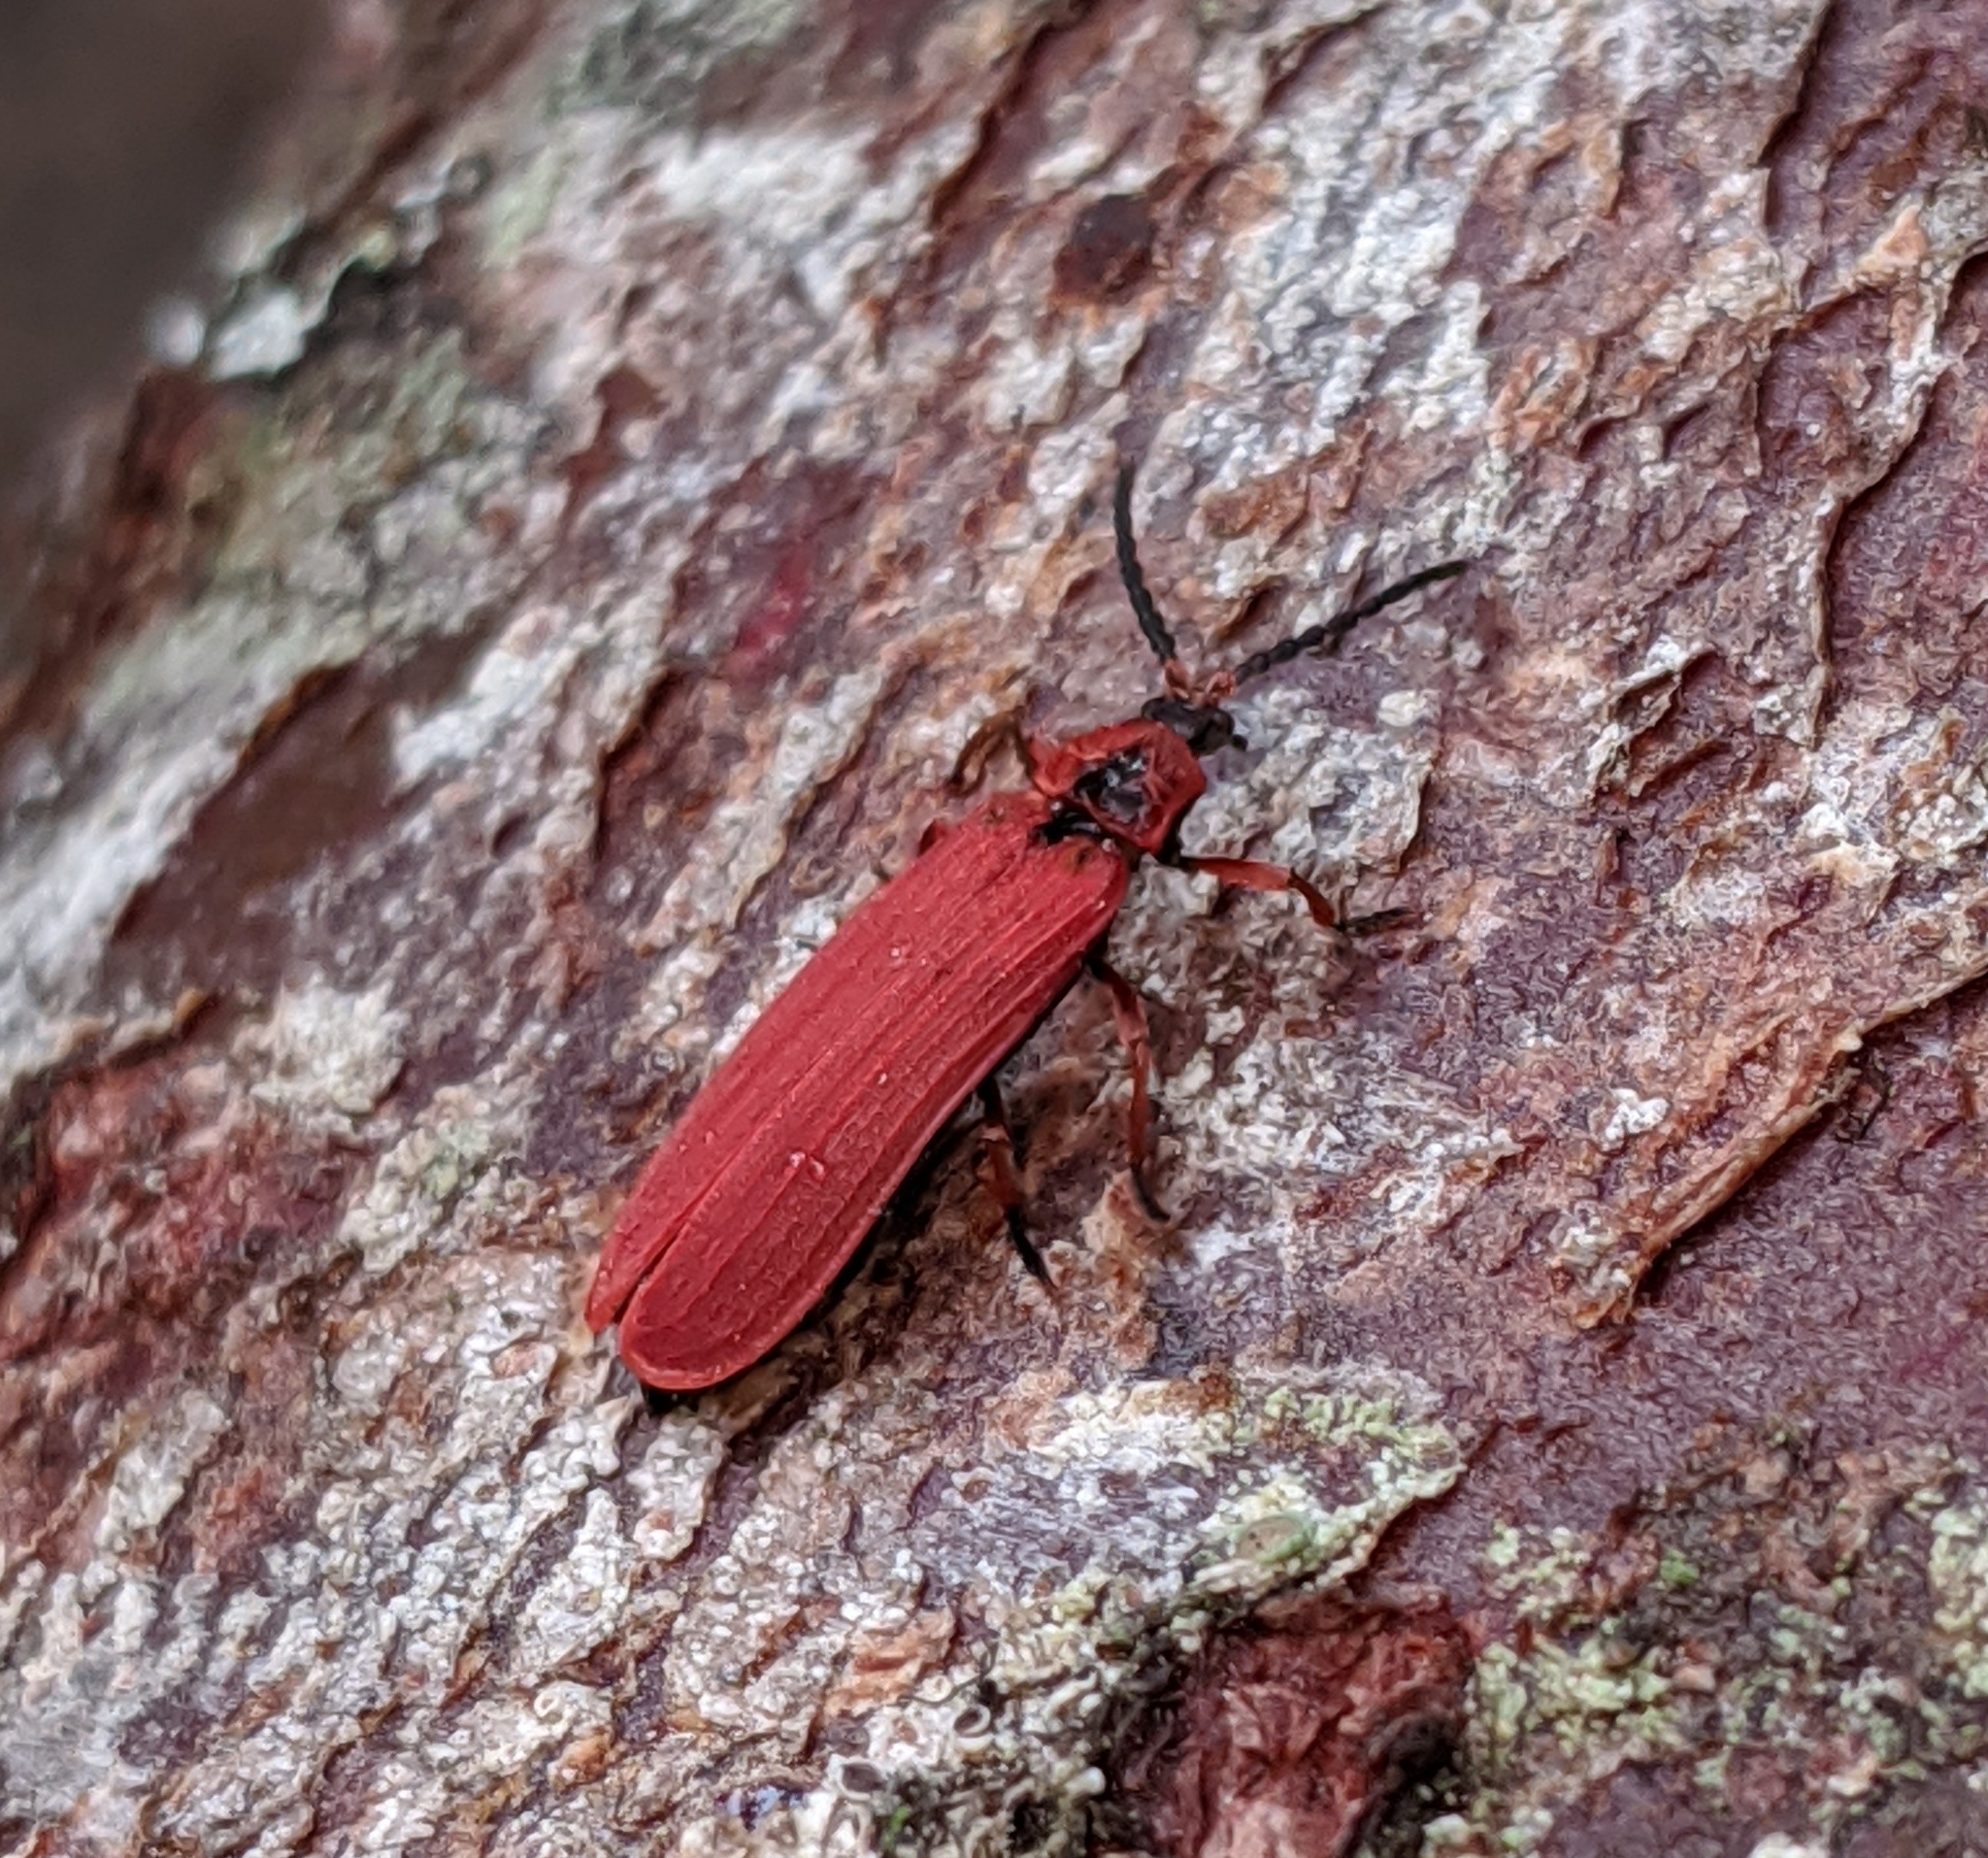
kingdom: Animalia
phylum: Arthropoda
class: Insecta
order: Coleoptera
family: Lycidae
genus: Dictyoptera
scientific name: Dictyoptera simplicipes
